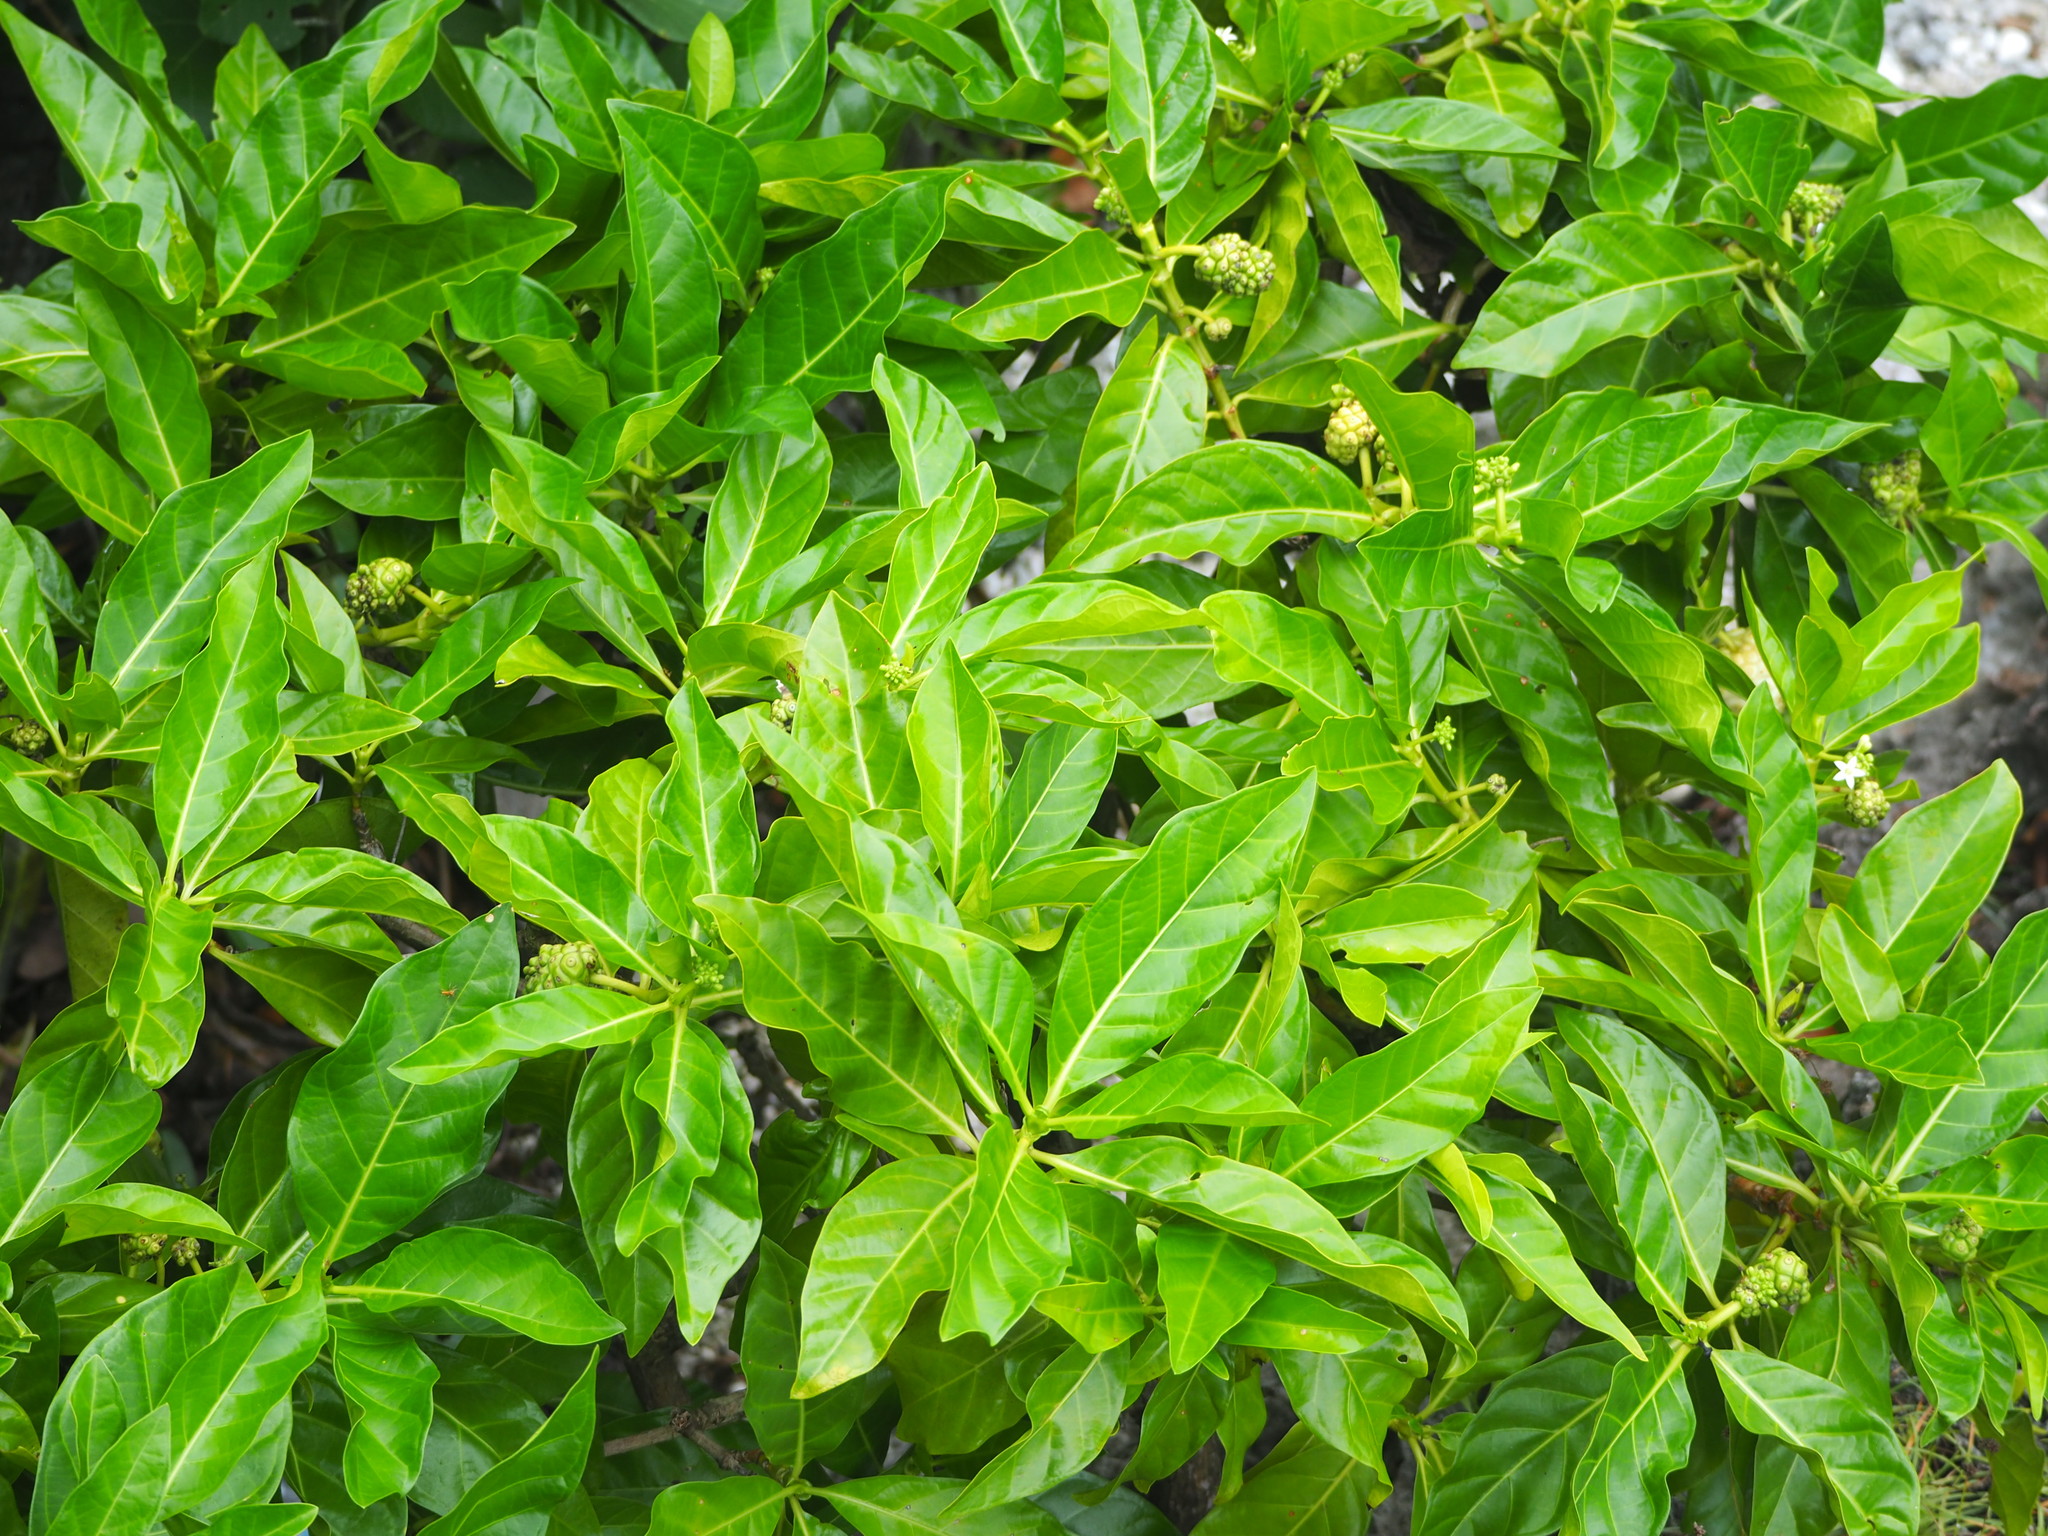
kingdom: Plantae
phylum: Tracheophyta
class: Magnoliopsida
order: Gentianales
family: Rubiaceae
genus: Morinda
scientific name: Morinda citrifolia
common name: Indian-mulberry
